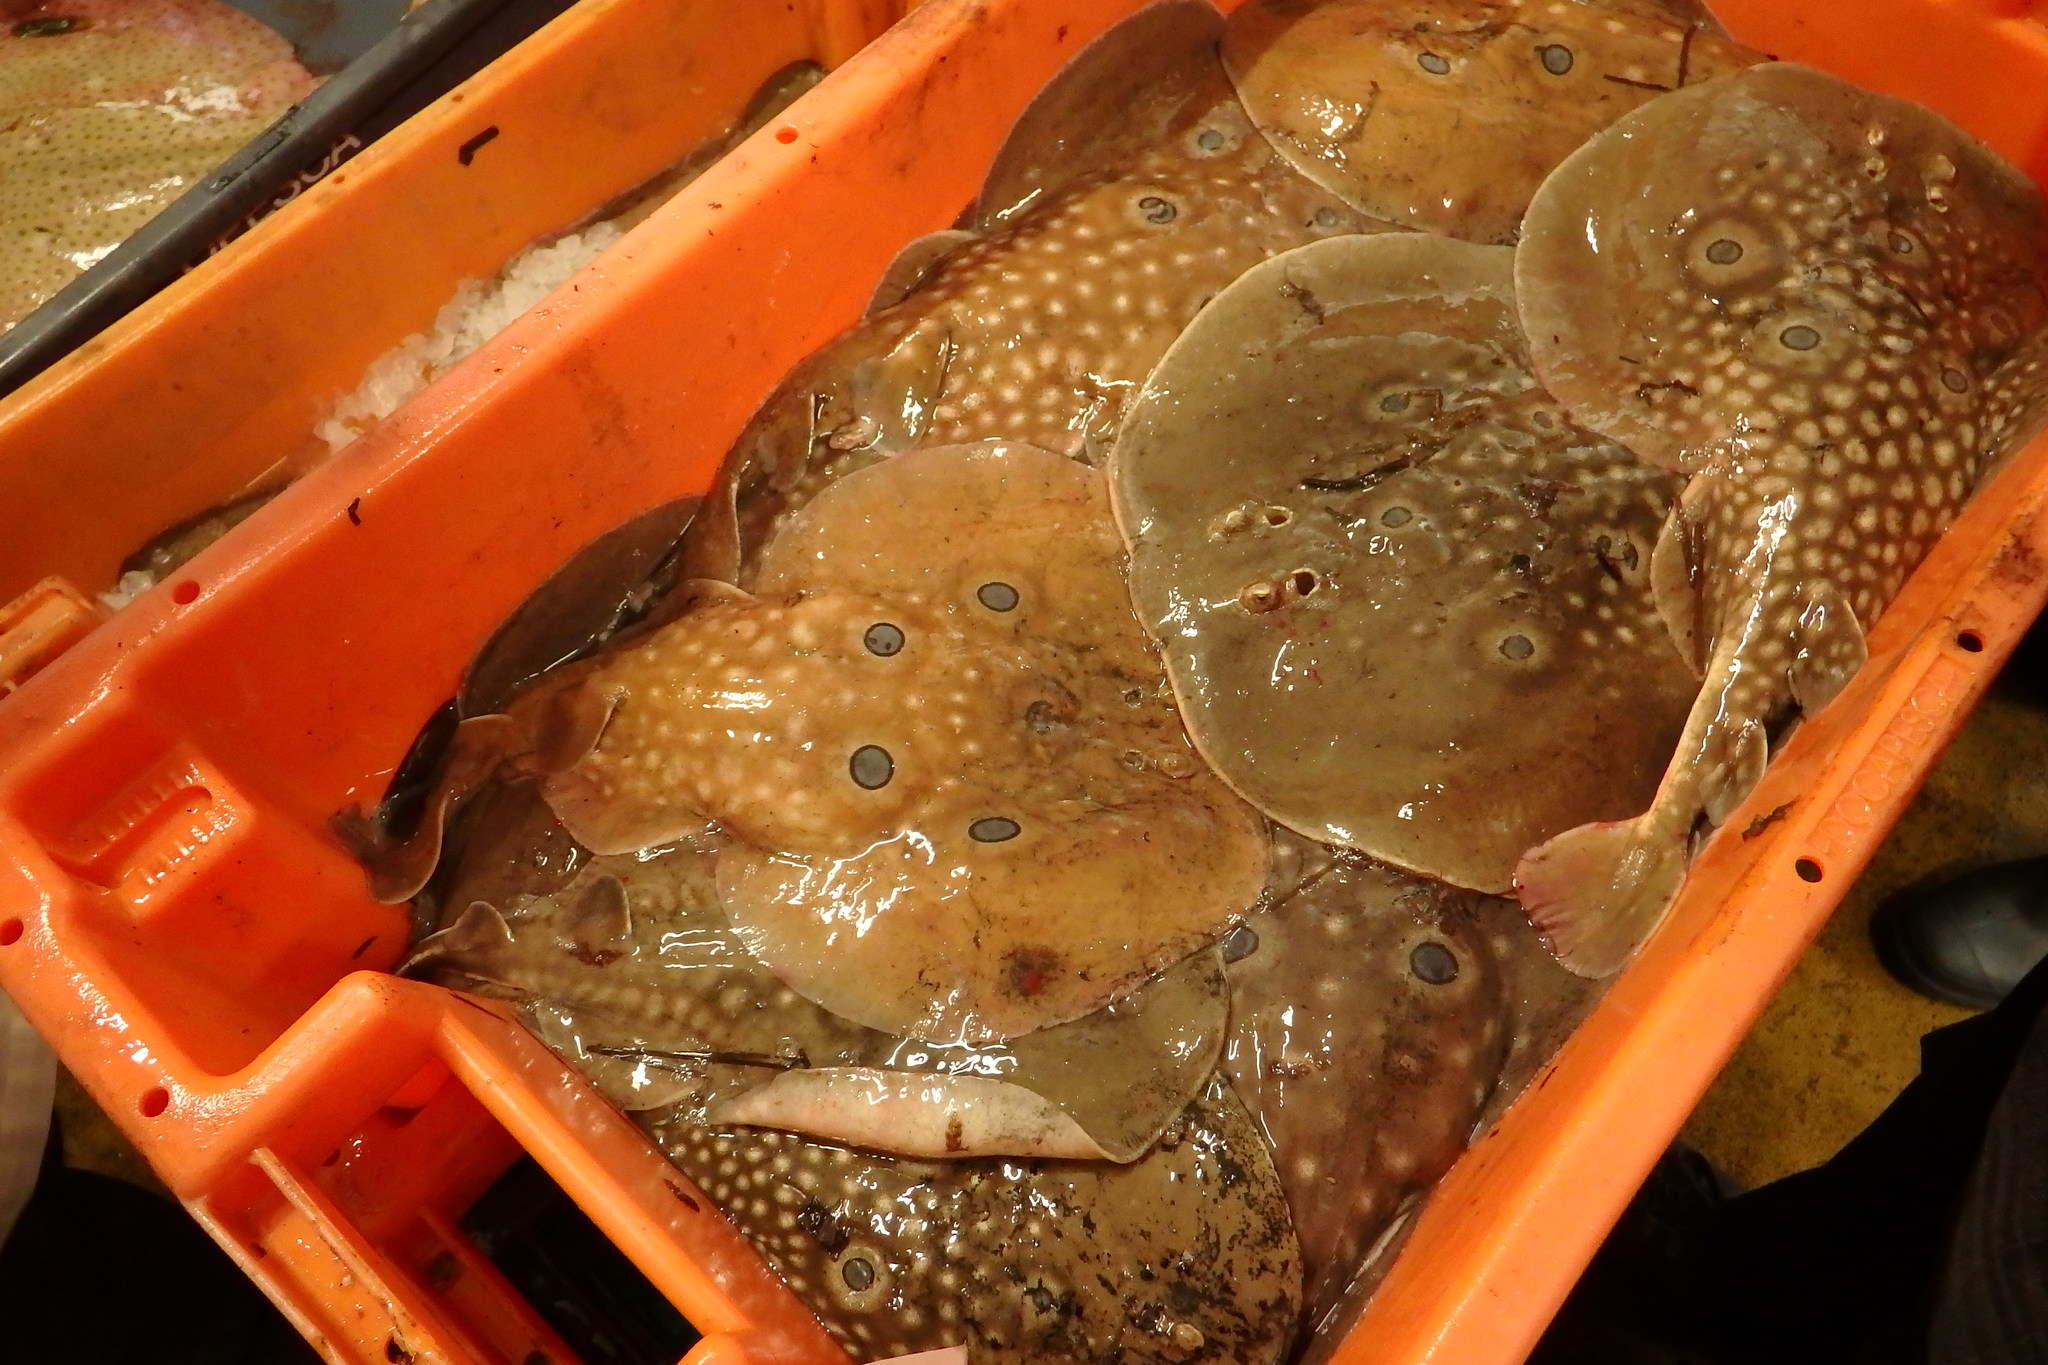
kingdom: Animalia
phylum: Chordata
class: Elasmobranchii
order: Torpediniformes
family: Torpedinidae
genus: Torpedo
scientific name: Torpedo torpedo
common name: Common torpedo
